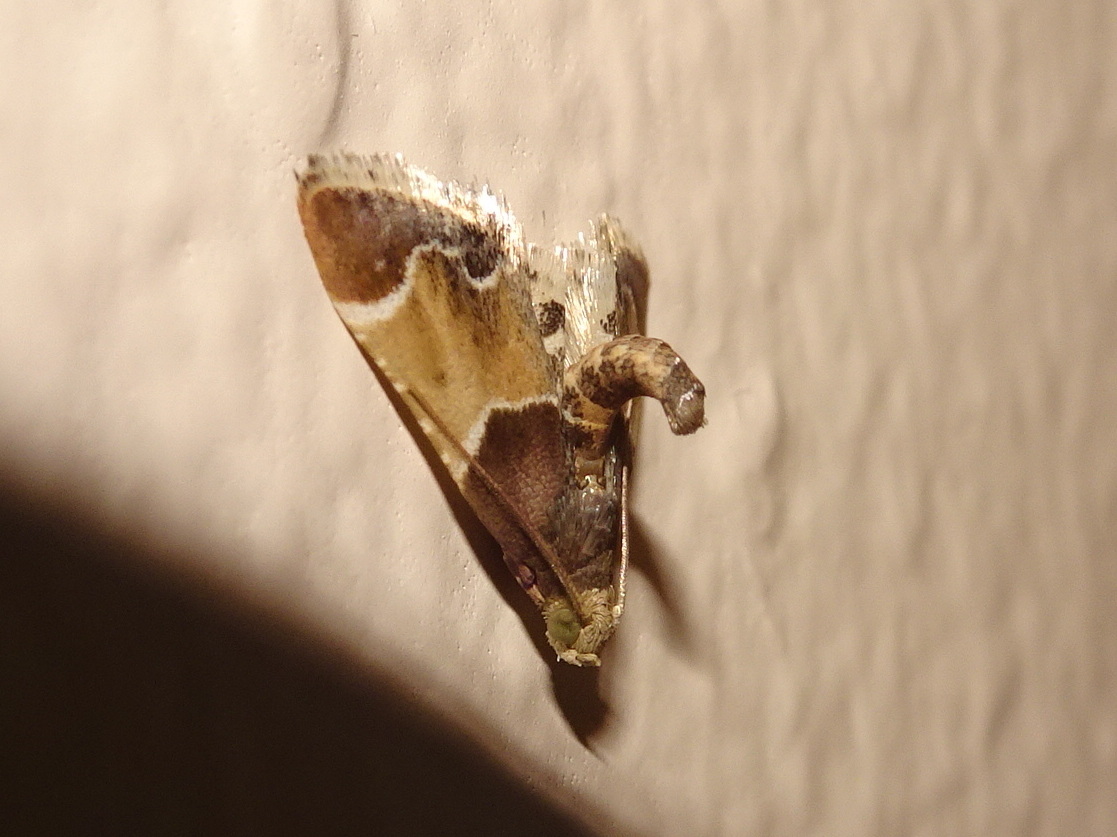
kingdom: Animalia
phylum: Arthropoda
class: Insecta
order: Lepidoptera
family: Pyralidae
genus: Pyralis
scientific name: Pyralis farinalis
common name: Meal moth
